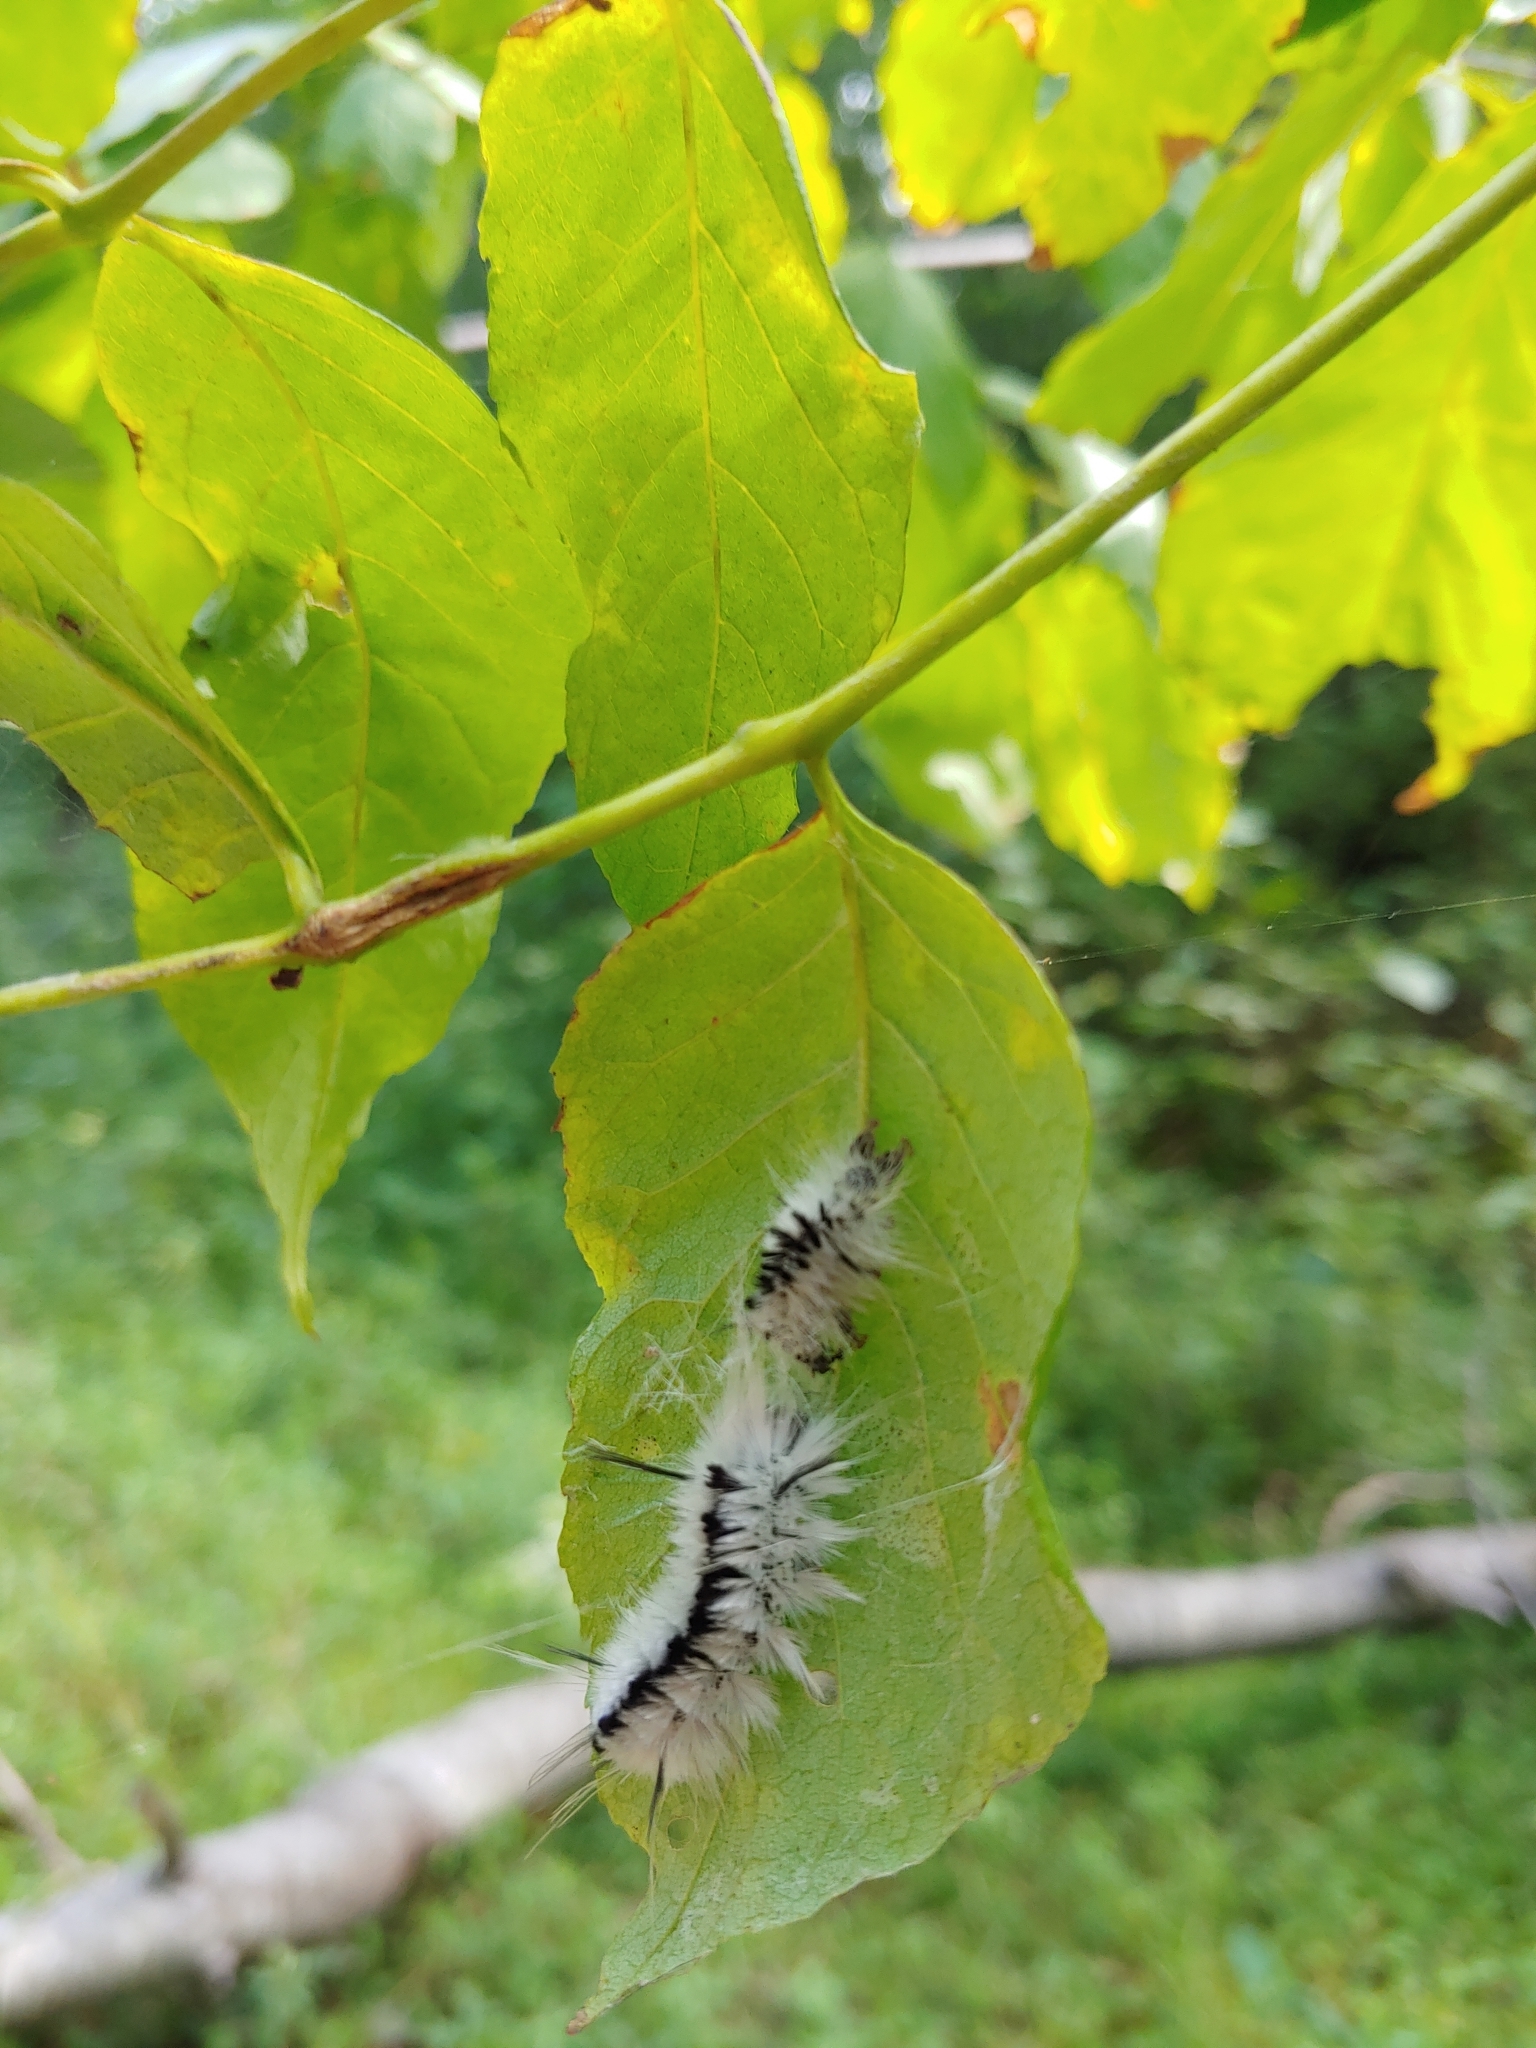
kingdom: Animalia
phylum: Arthropoda
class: Insecta
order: Lepidoptera
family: Erebidae
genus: Lophocampa
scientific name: Lophocampa caryae
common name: Hickory tussock moth
